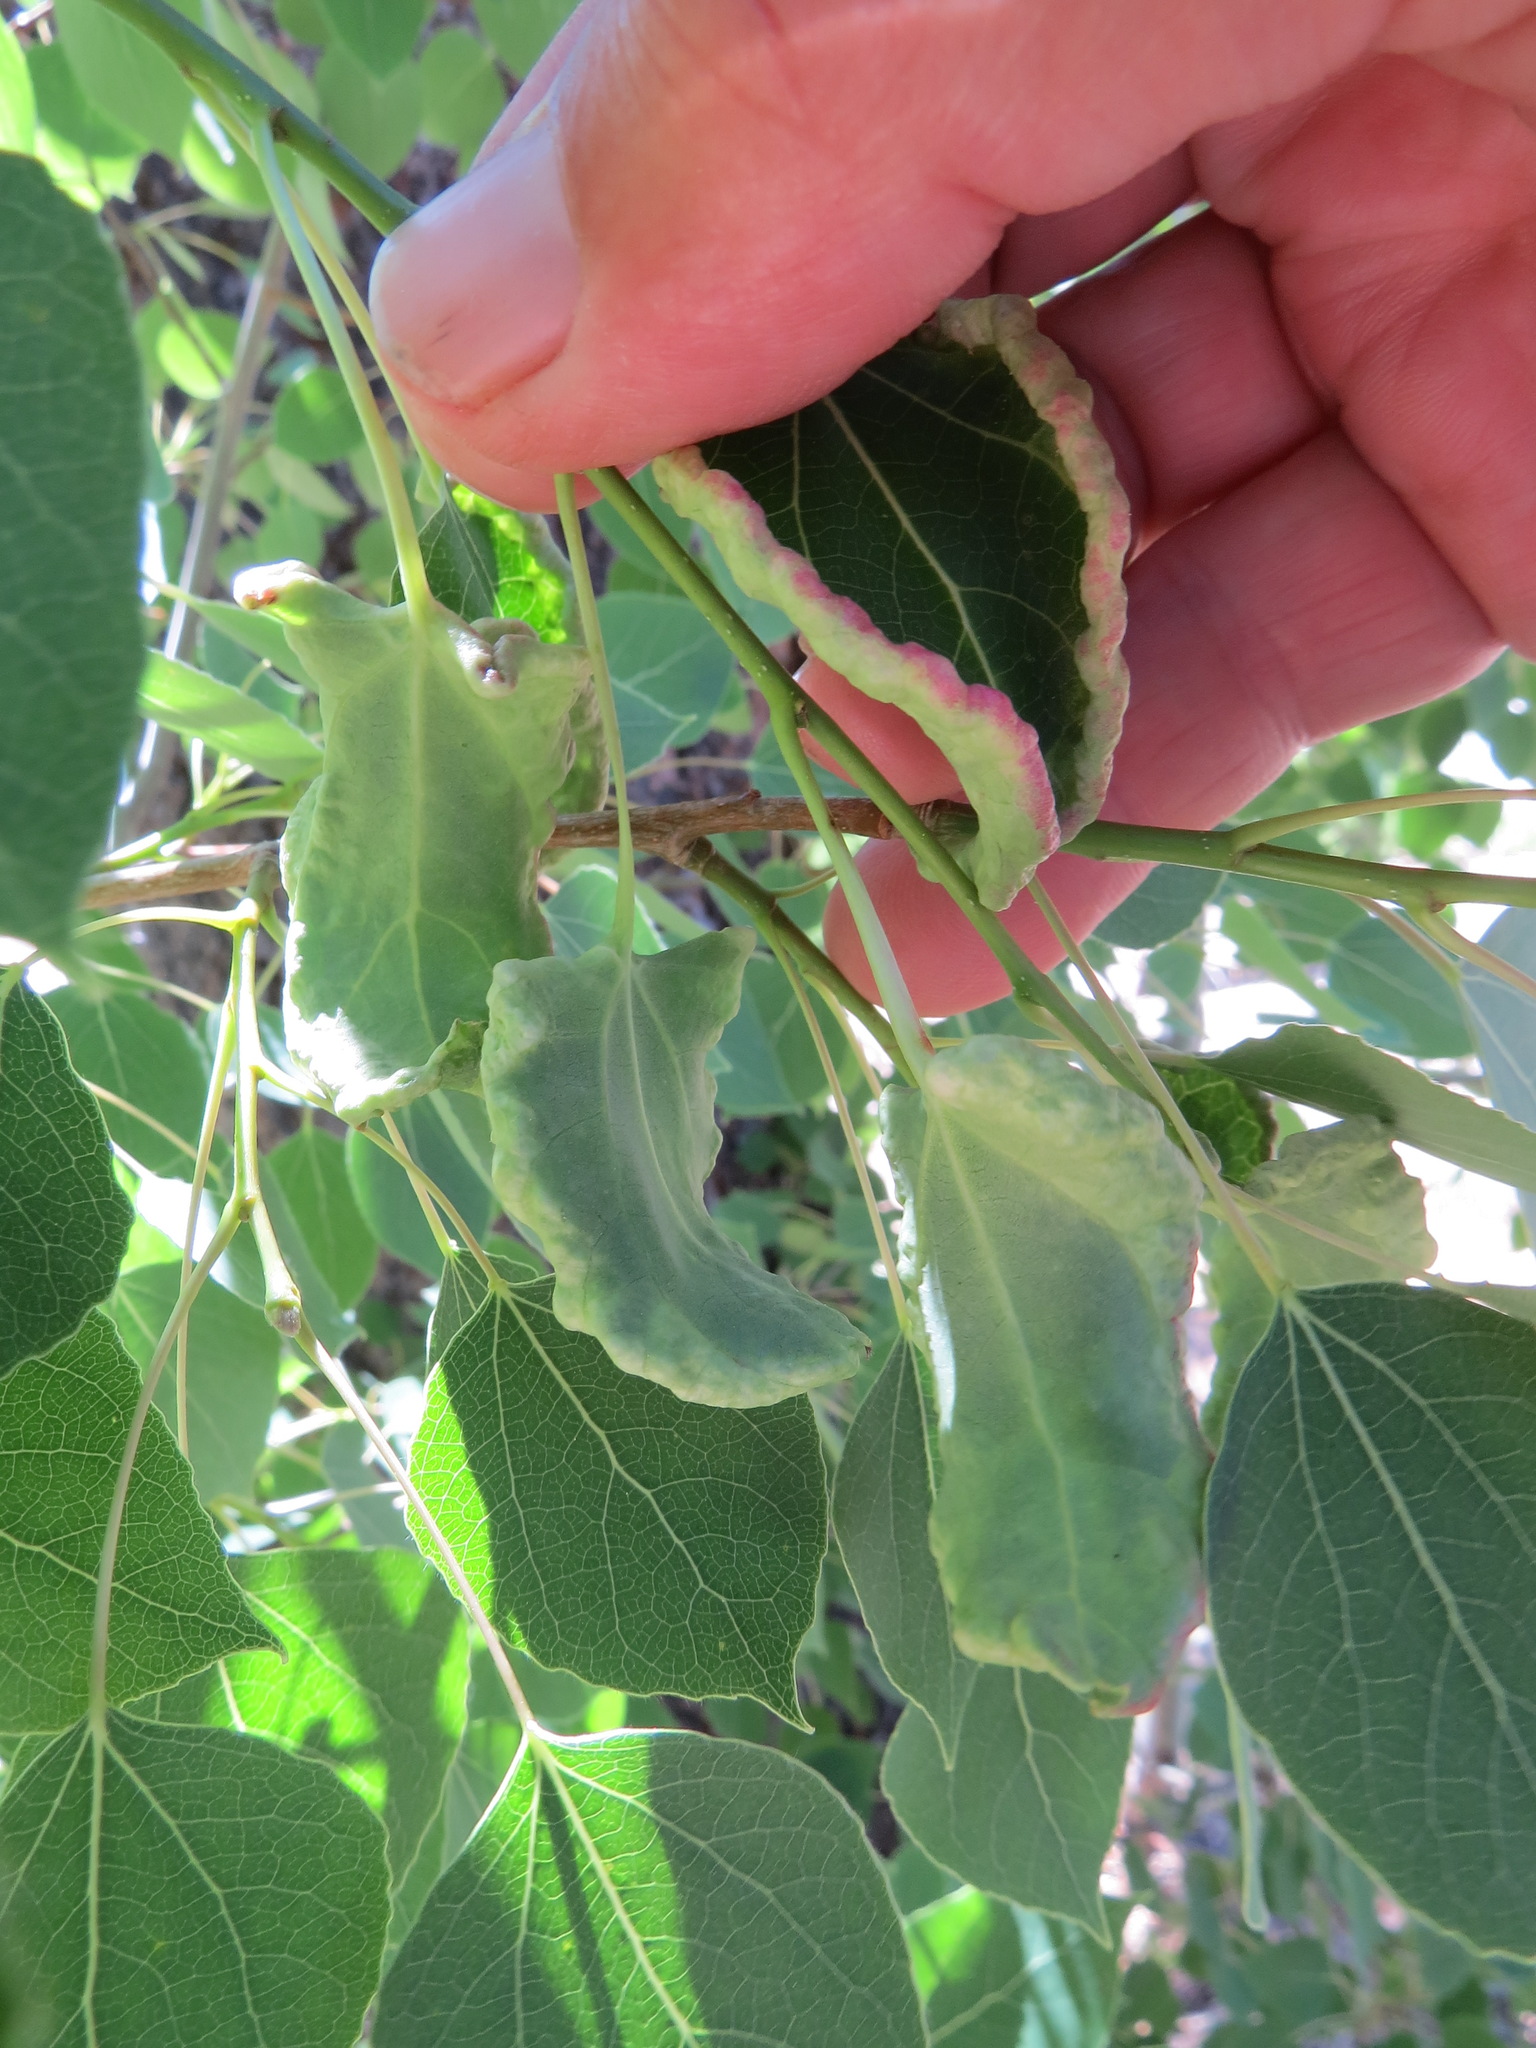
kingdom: Animalia
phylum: Arthropoda
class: Insecta
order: Diptera
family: Cecidomyiidae
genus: Prodiplosis
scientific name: Prodiplosis morrisi
